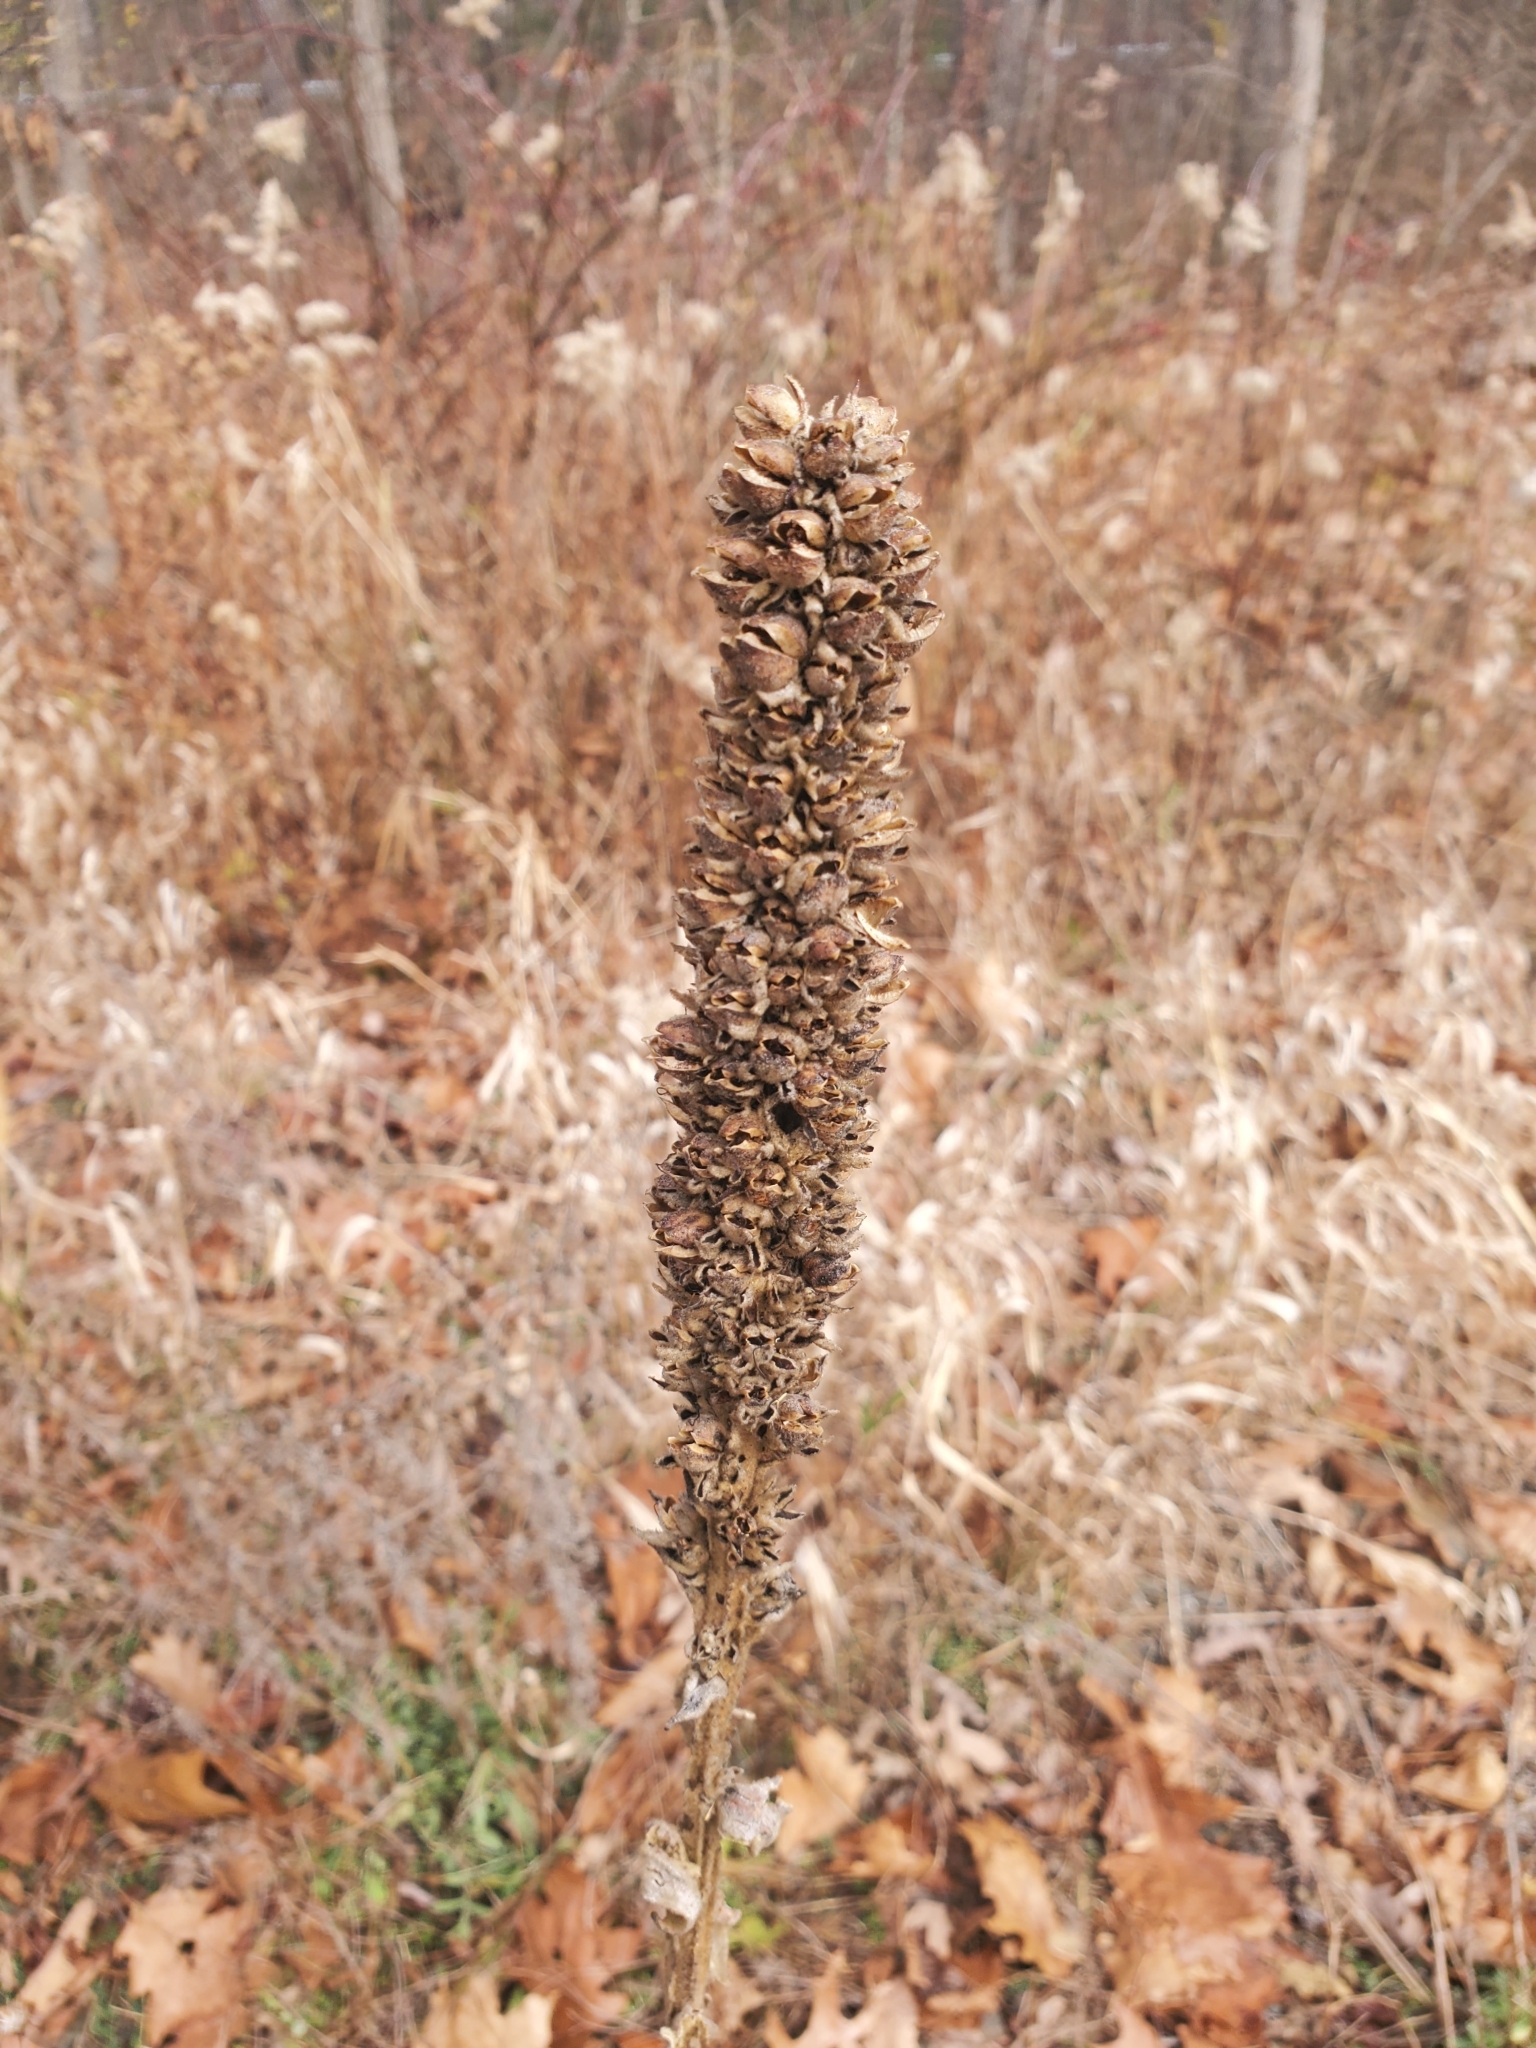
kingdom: Plantae
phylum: Tracheophyta
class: Magnoliopsida
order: Lamiales
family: Scrophulariaceae
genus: Verbascum
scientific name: Verbascum thapsus
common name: Common mullein
